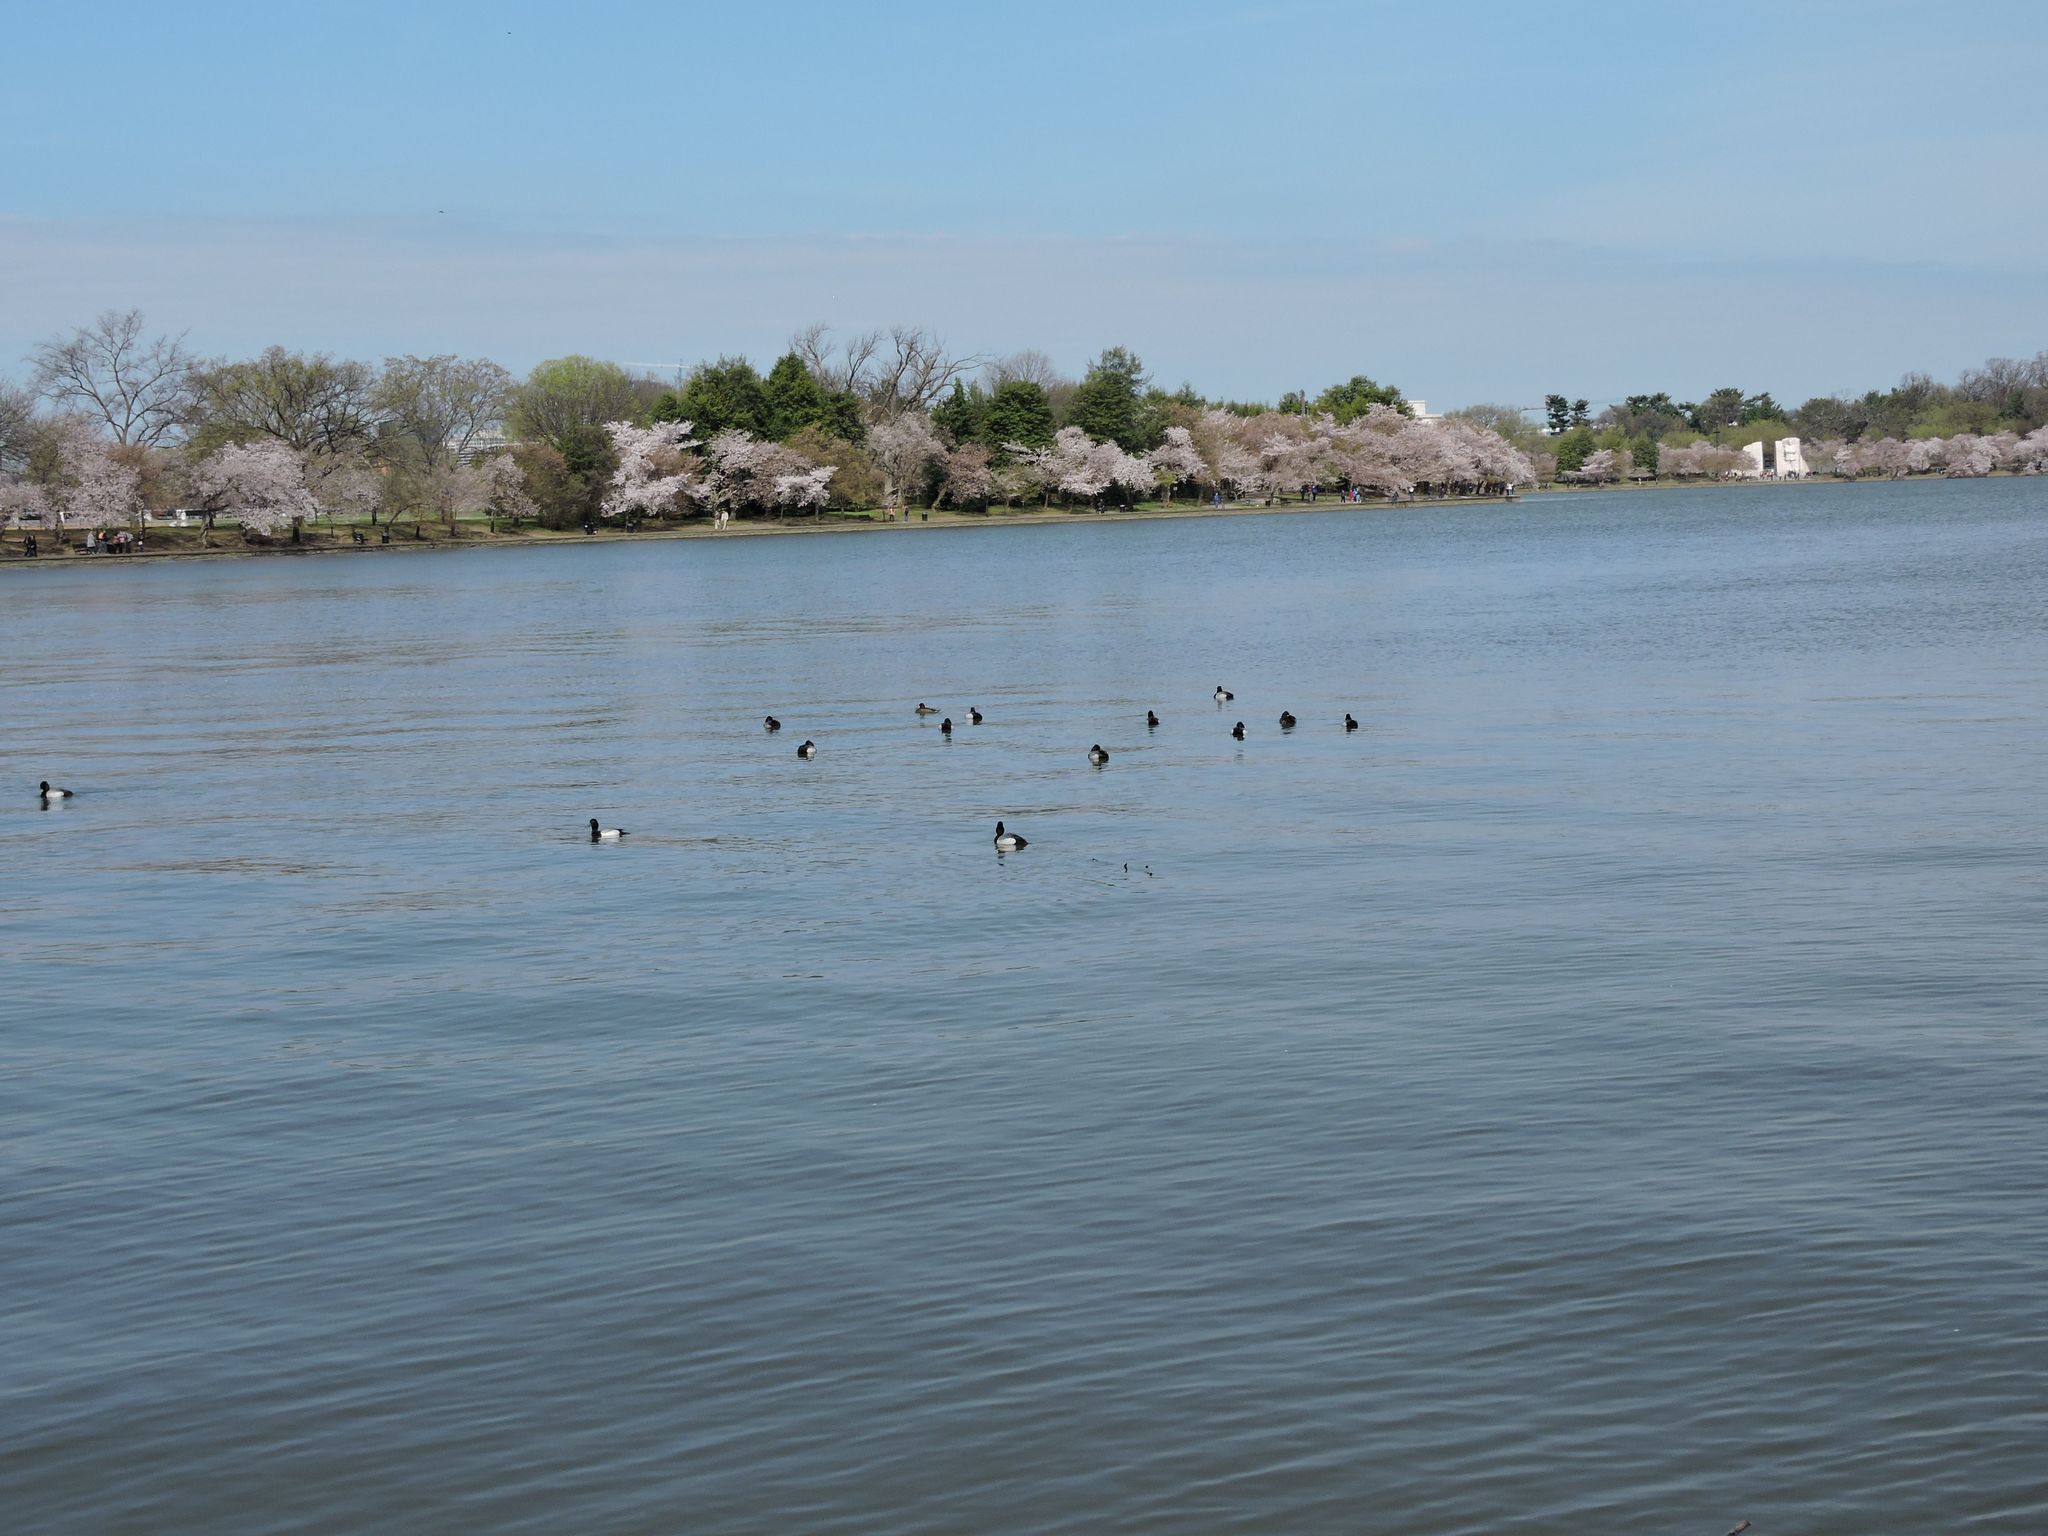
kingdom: Animalia
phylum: Chordata
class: Aves
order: Anseriformes
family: Anatidae
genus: Aythya
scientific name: Aythya affinis
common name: Lesser scaup
